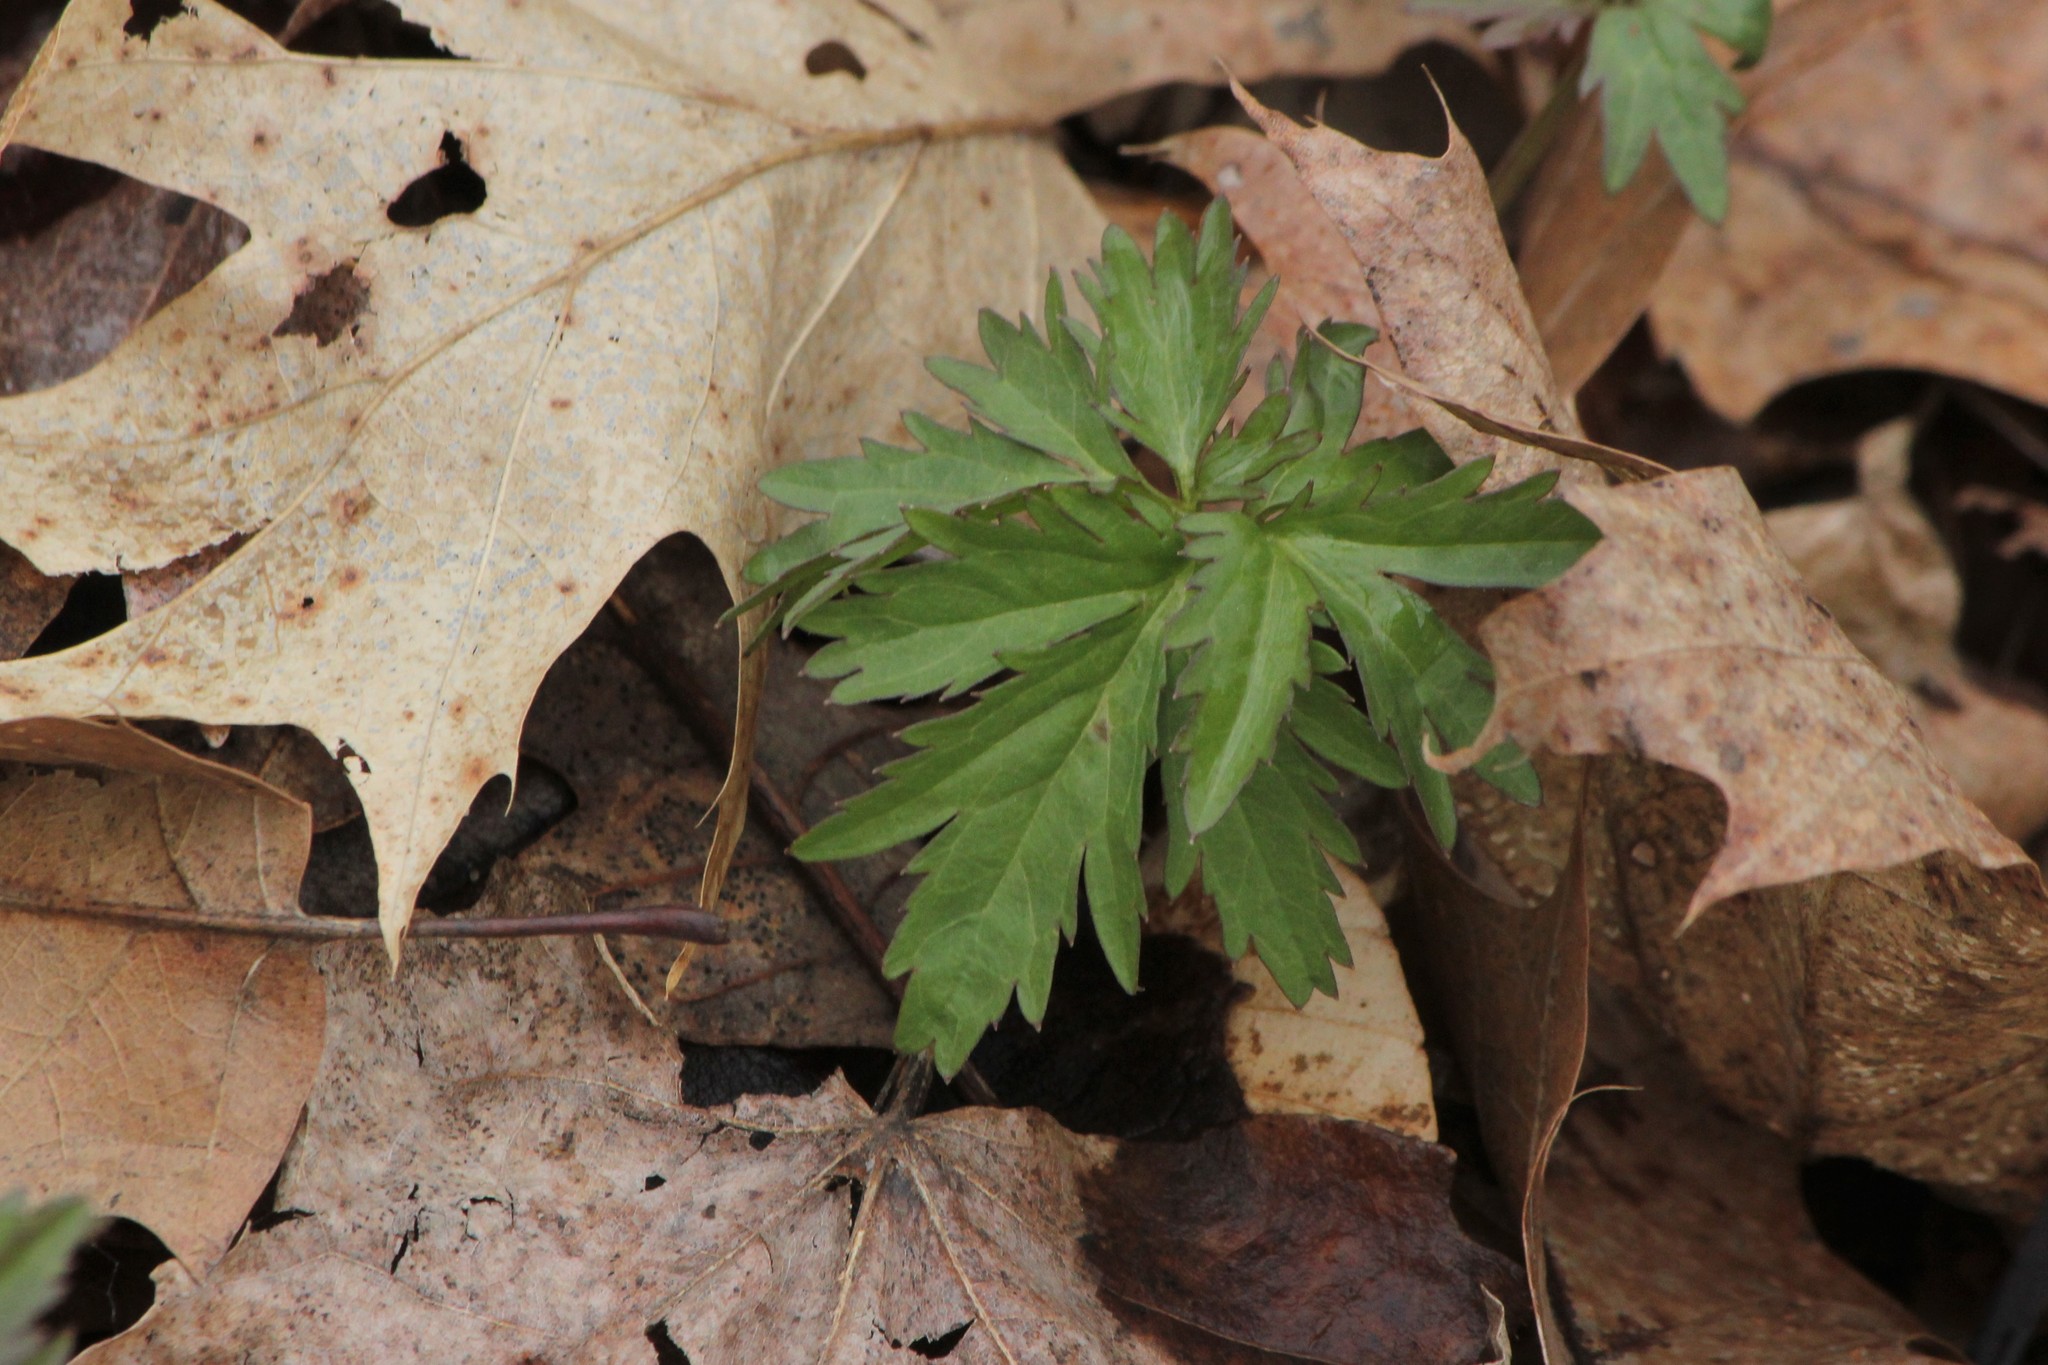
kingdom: Plantae
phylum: Tracheophyta
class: Magnoliopsida
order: Brassicales
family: Brassicaceae
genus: Cardamine
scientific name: Cardamine maxima
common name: Great bittercress
